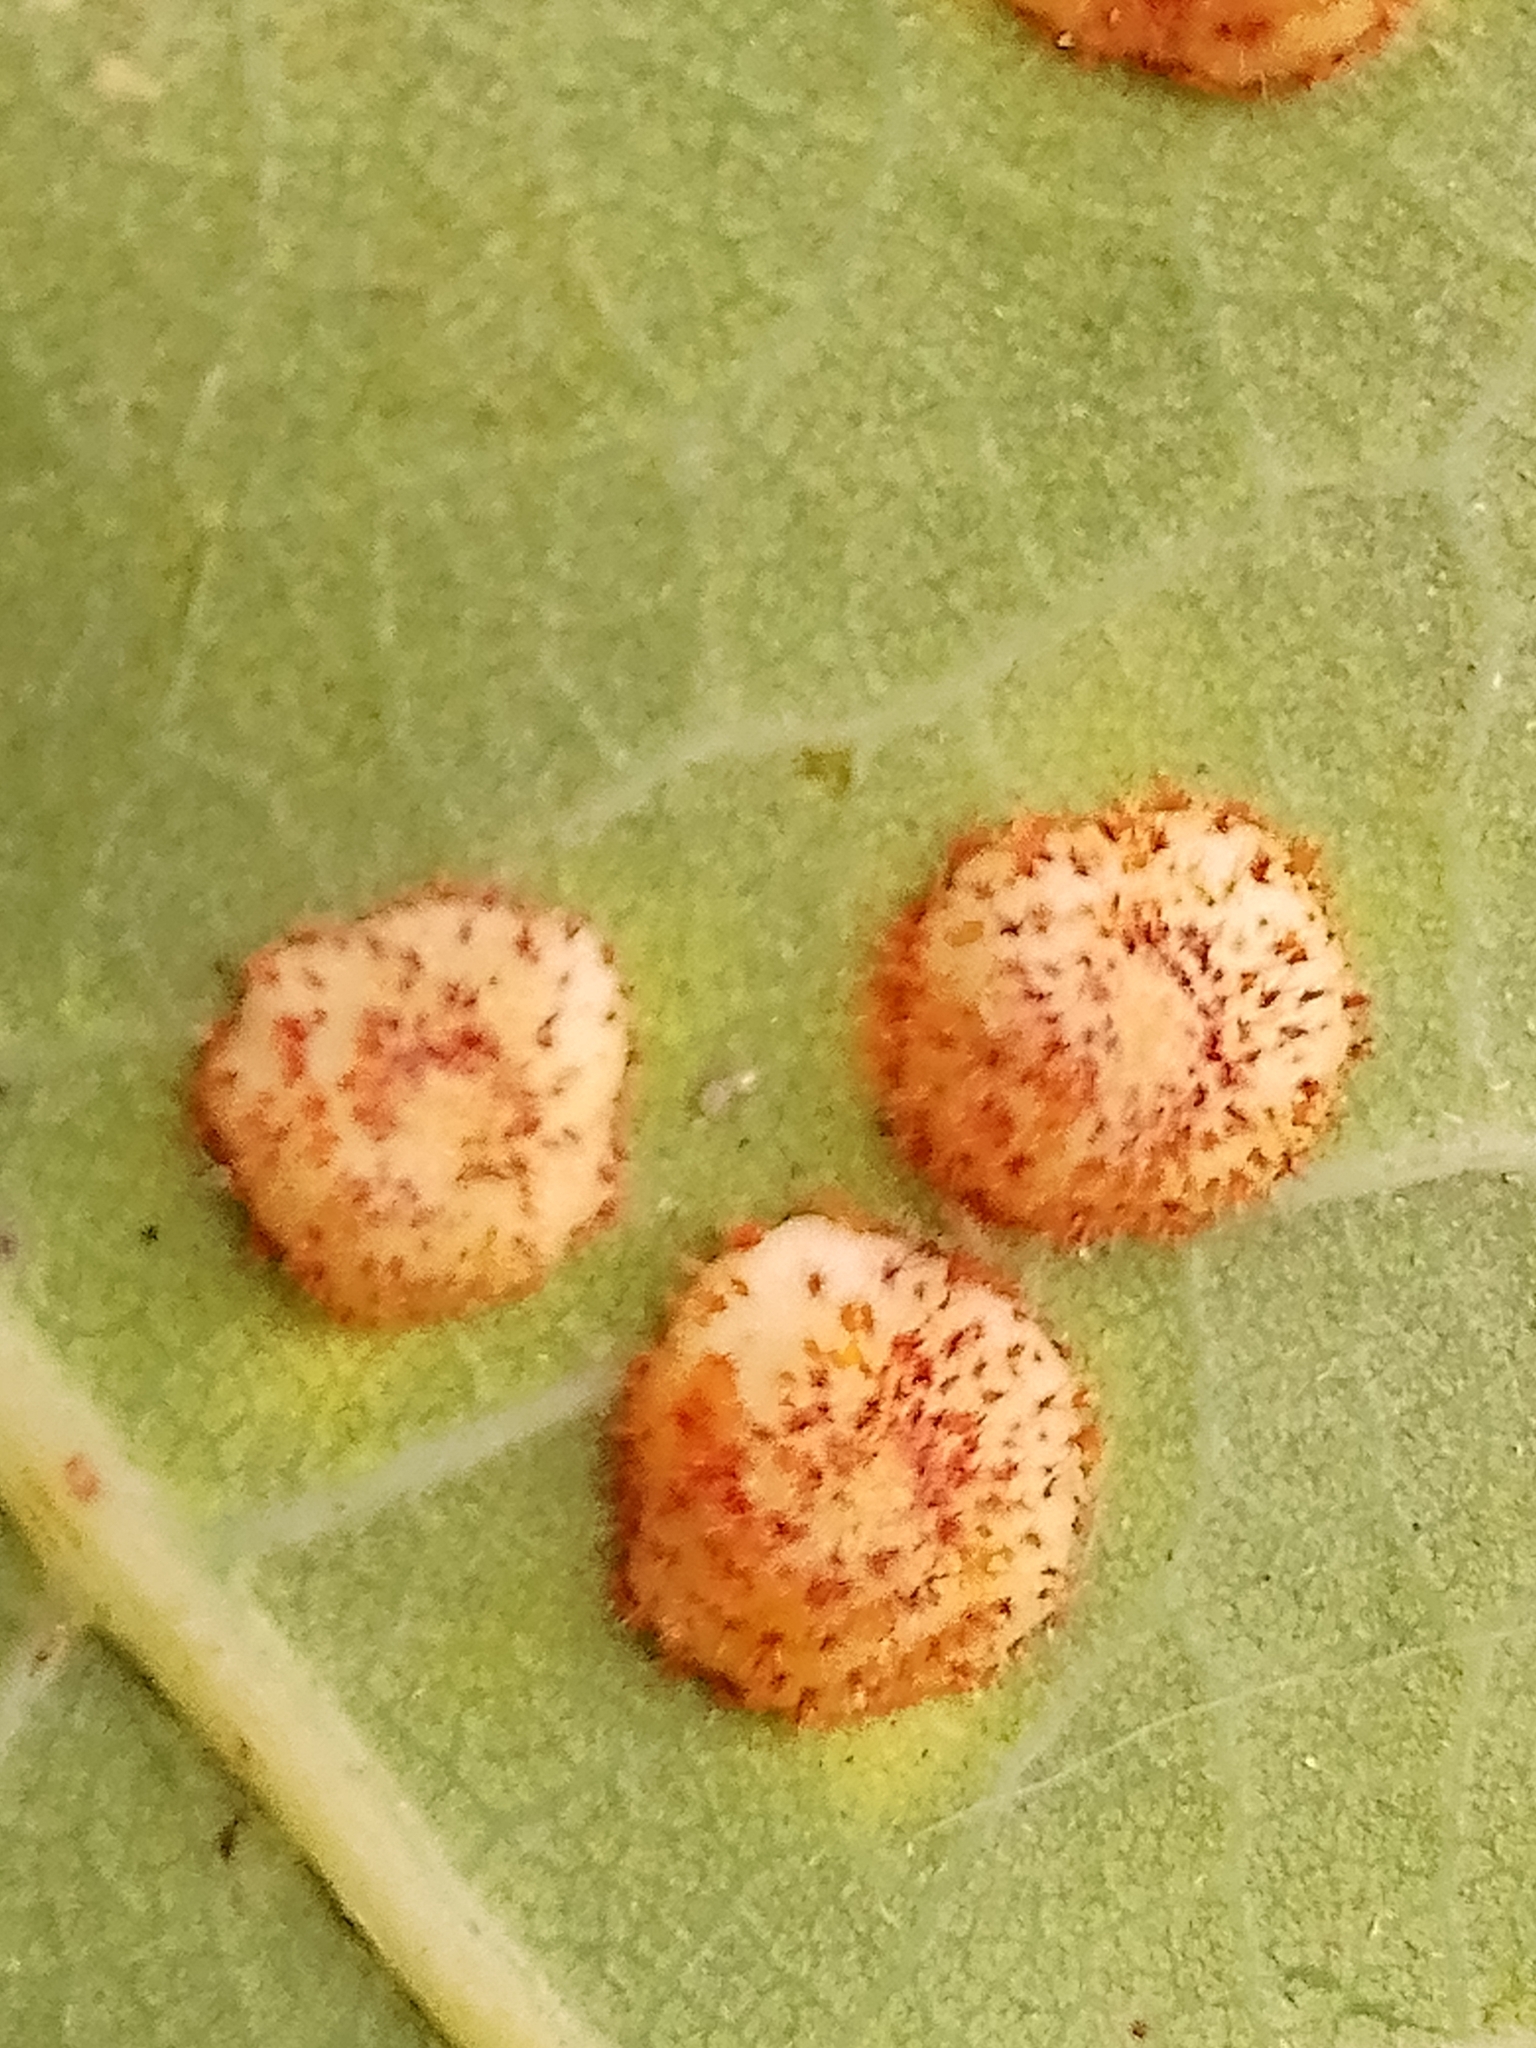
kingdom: Animalia
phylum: Arthropoda
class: Insecta
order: Hymenoptera
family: Cynipidae
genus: Neuroterus
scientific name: Neuroterus quercusbaccarum
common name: Common spangle gall
